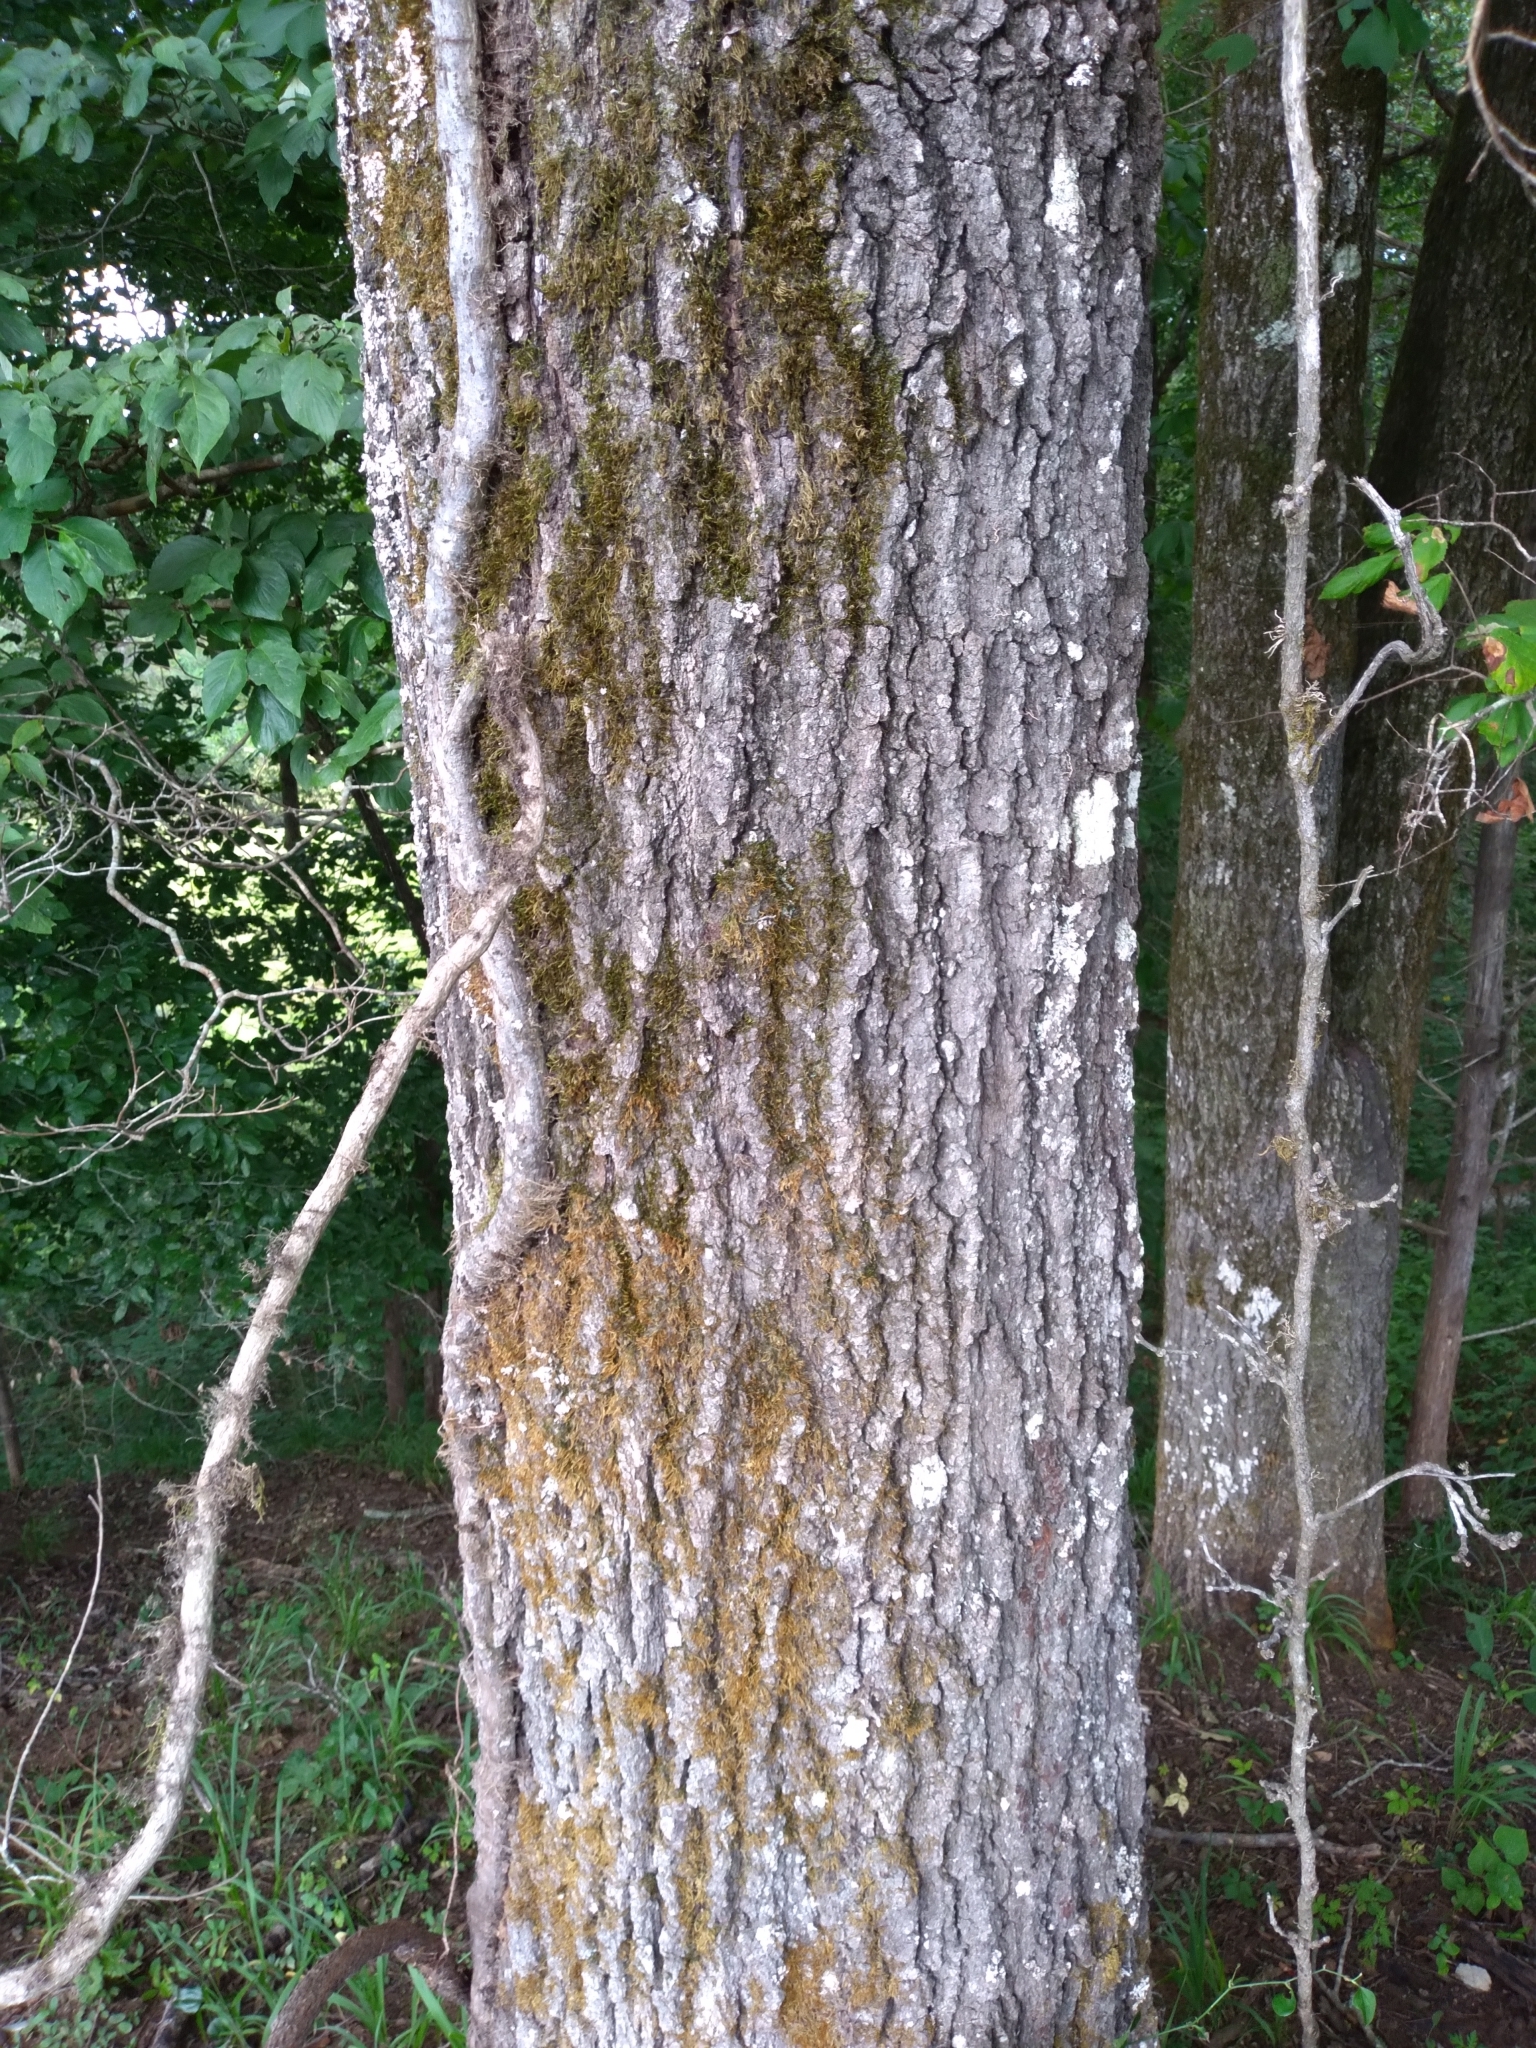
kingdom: Plantae
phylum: Tracheophyta
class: Magnoliopsida
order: Fagales
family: Fagaceae
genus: Quercus
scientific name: Quercus falcata
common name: Southern red oak
